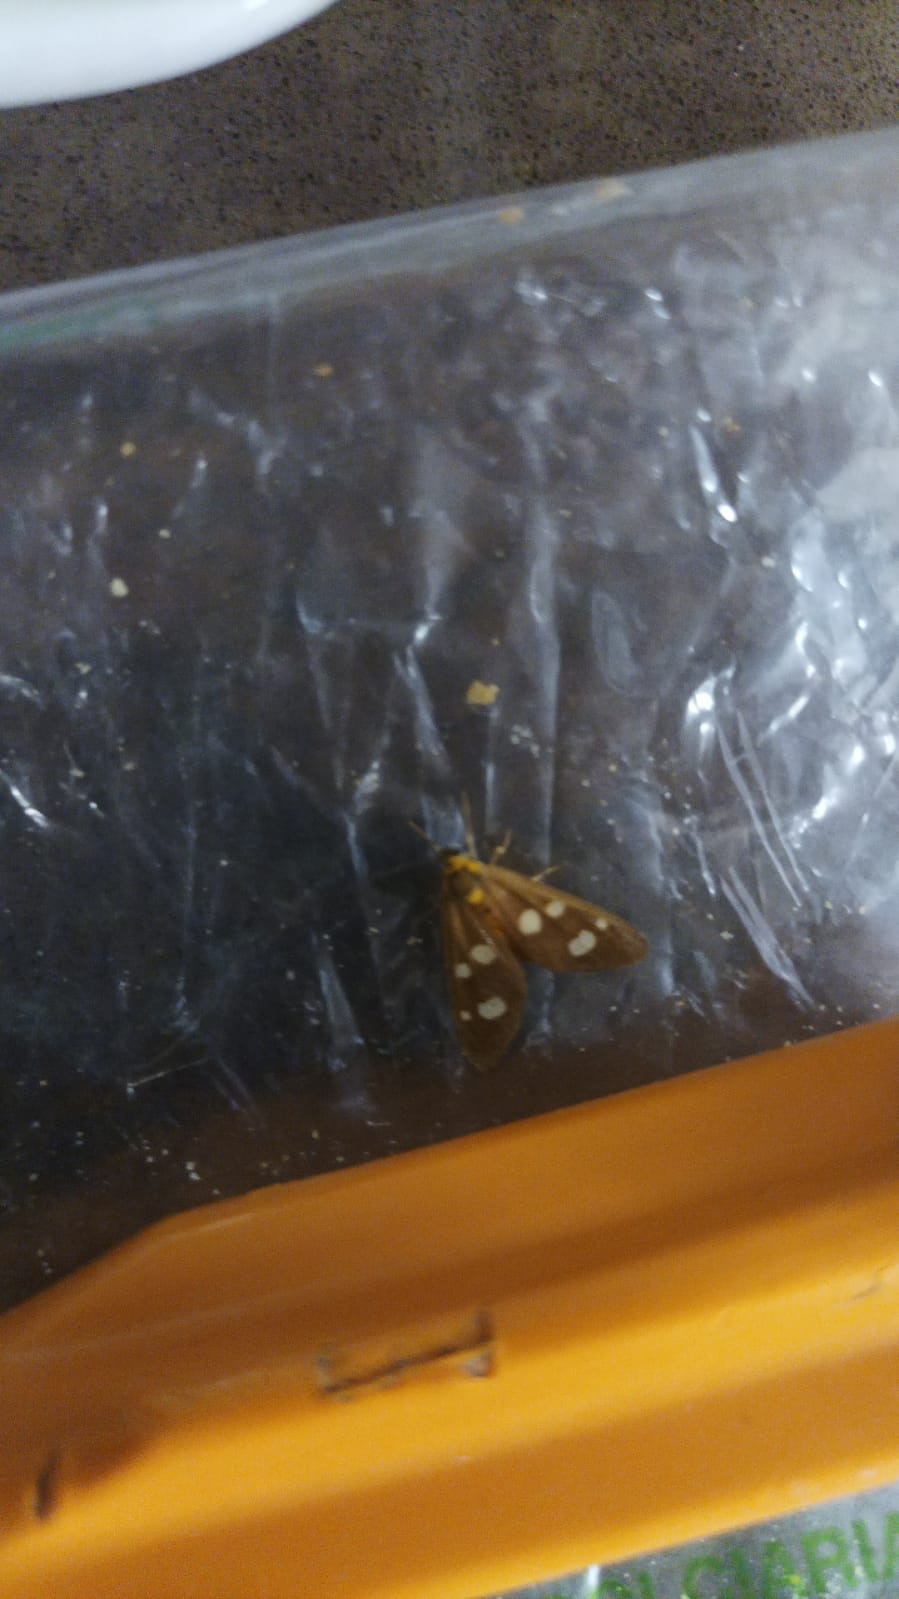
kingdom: Animalia
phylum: Arthropoda
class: Insecta
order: Lepidoptera
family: Erebidae
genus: Dysauxes
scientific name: Dysauxes punctata
